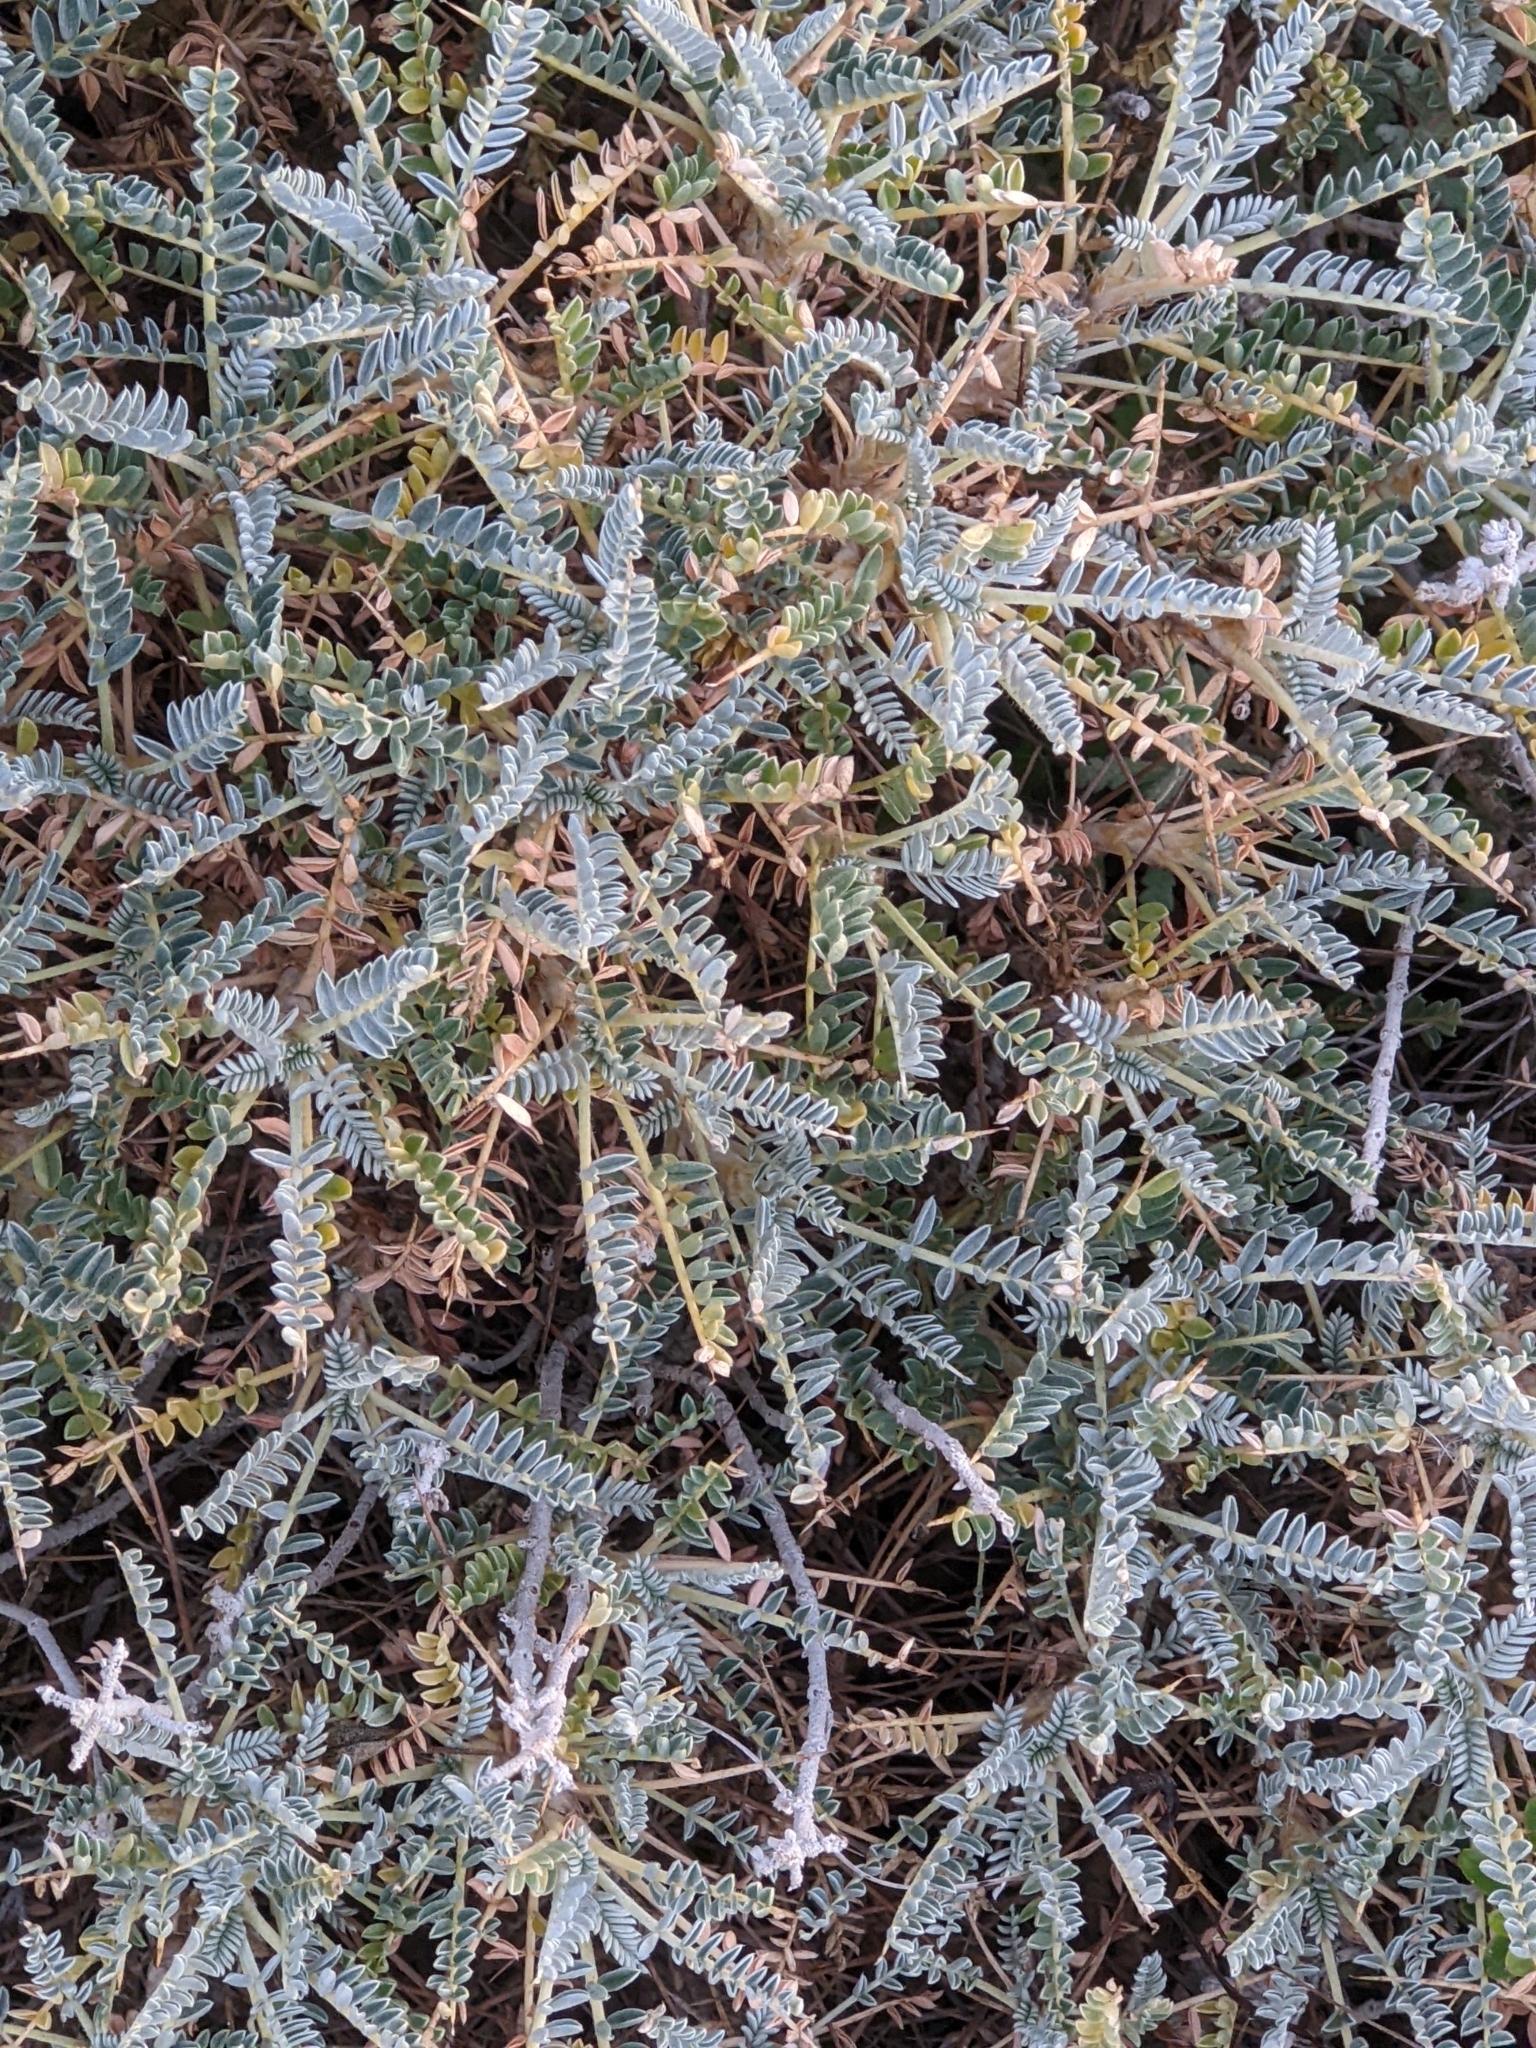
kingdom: Plantae
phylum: Tracheophyta
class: Magnoliopsida
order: Fabales
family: Fabaceae
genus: Astragalus
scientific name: Astragalus tragacantha
